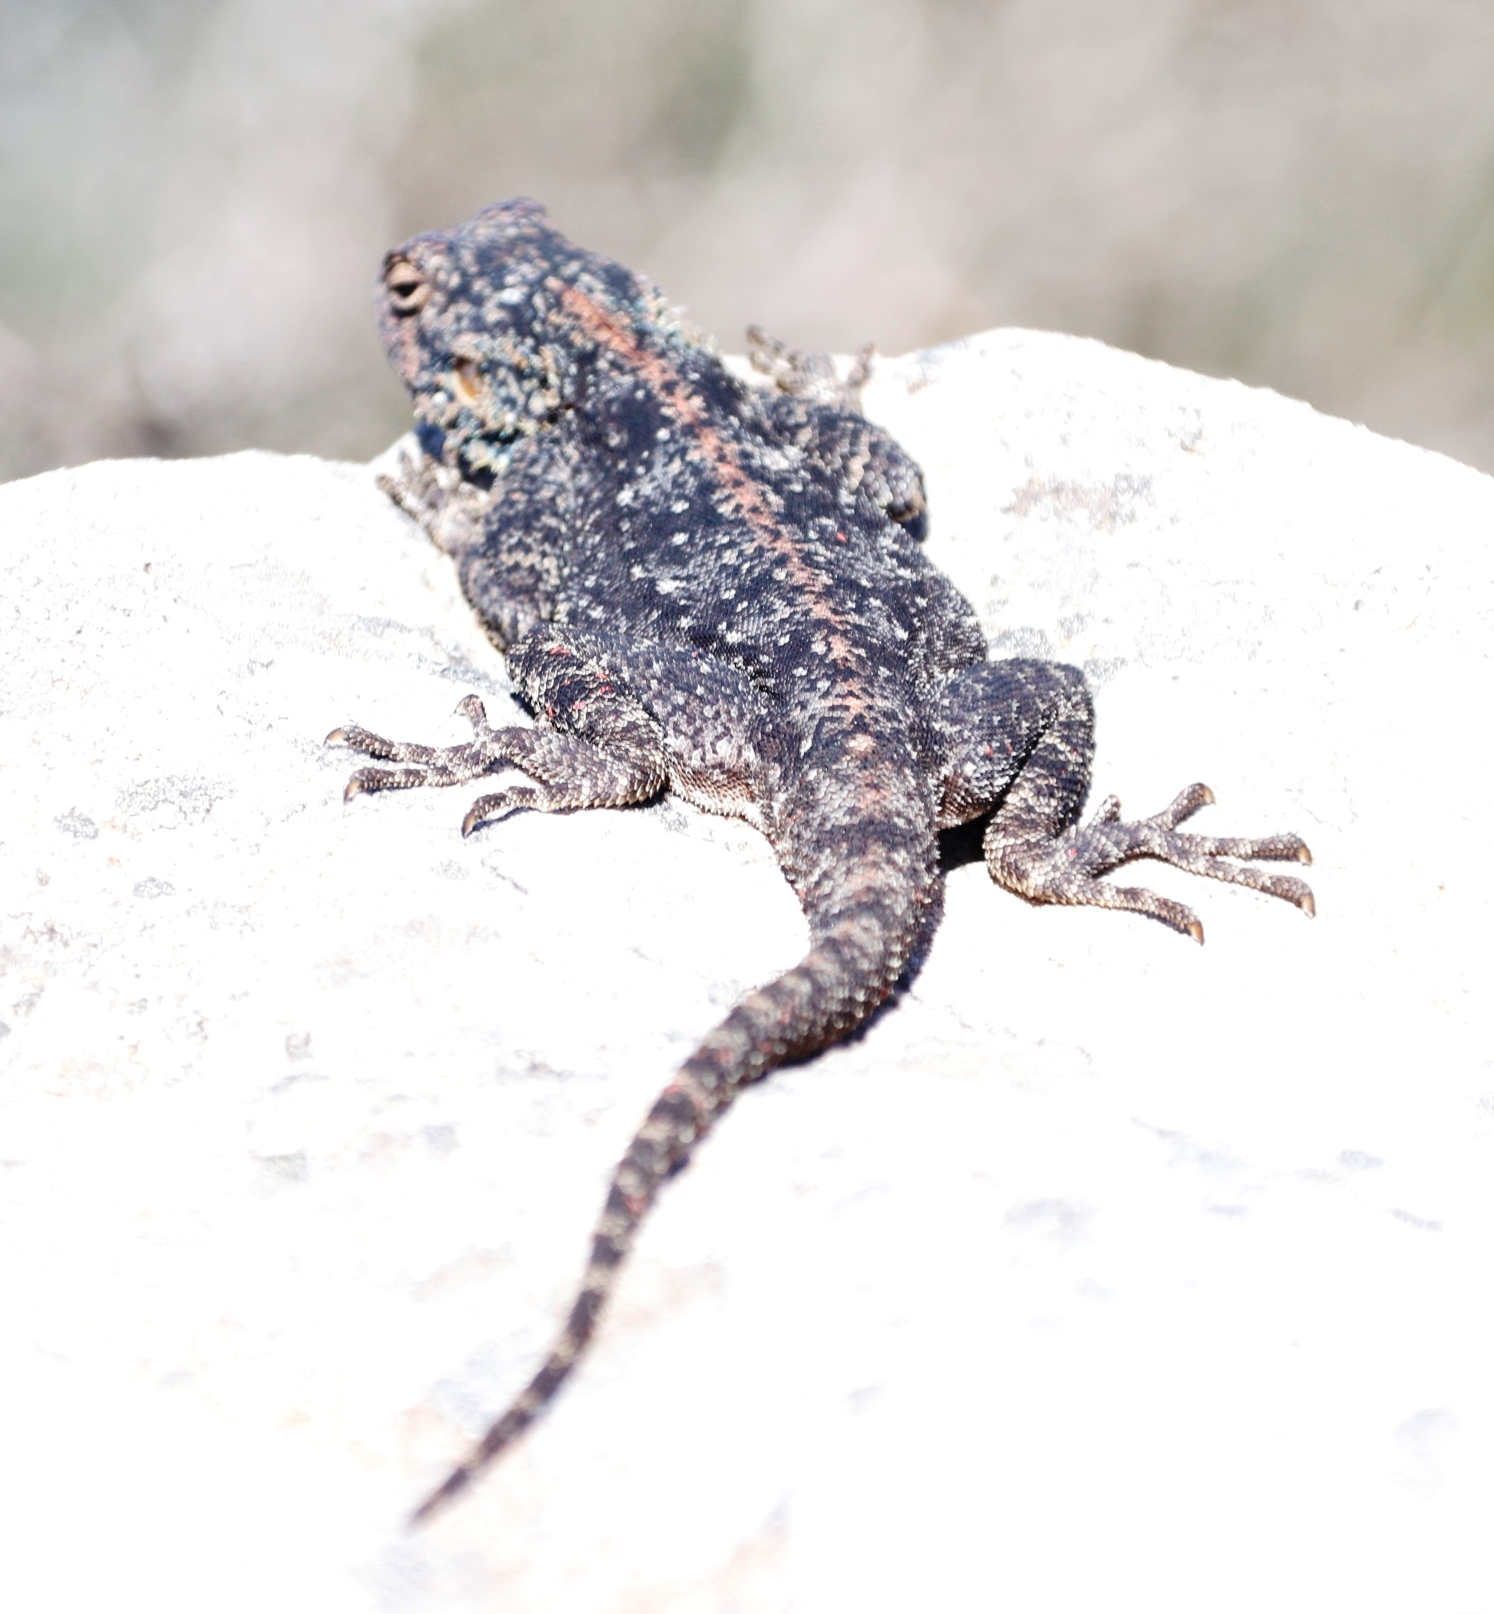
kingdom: Animalia
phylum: Chordata
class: Squamata
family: Agamidae
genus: Agama
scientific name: Agama atra
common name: Southern african rock agama
